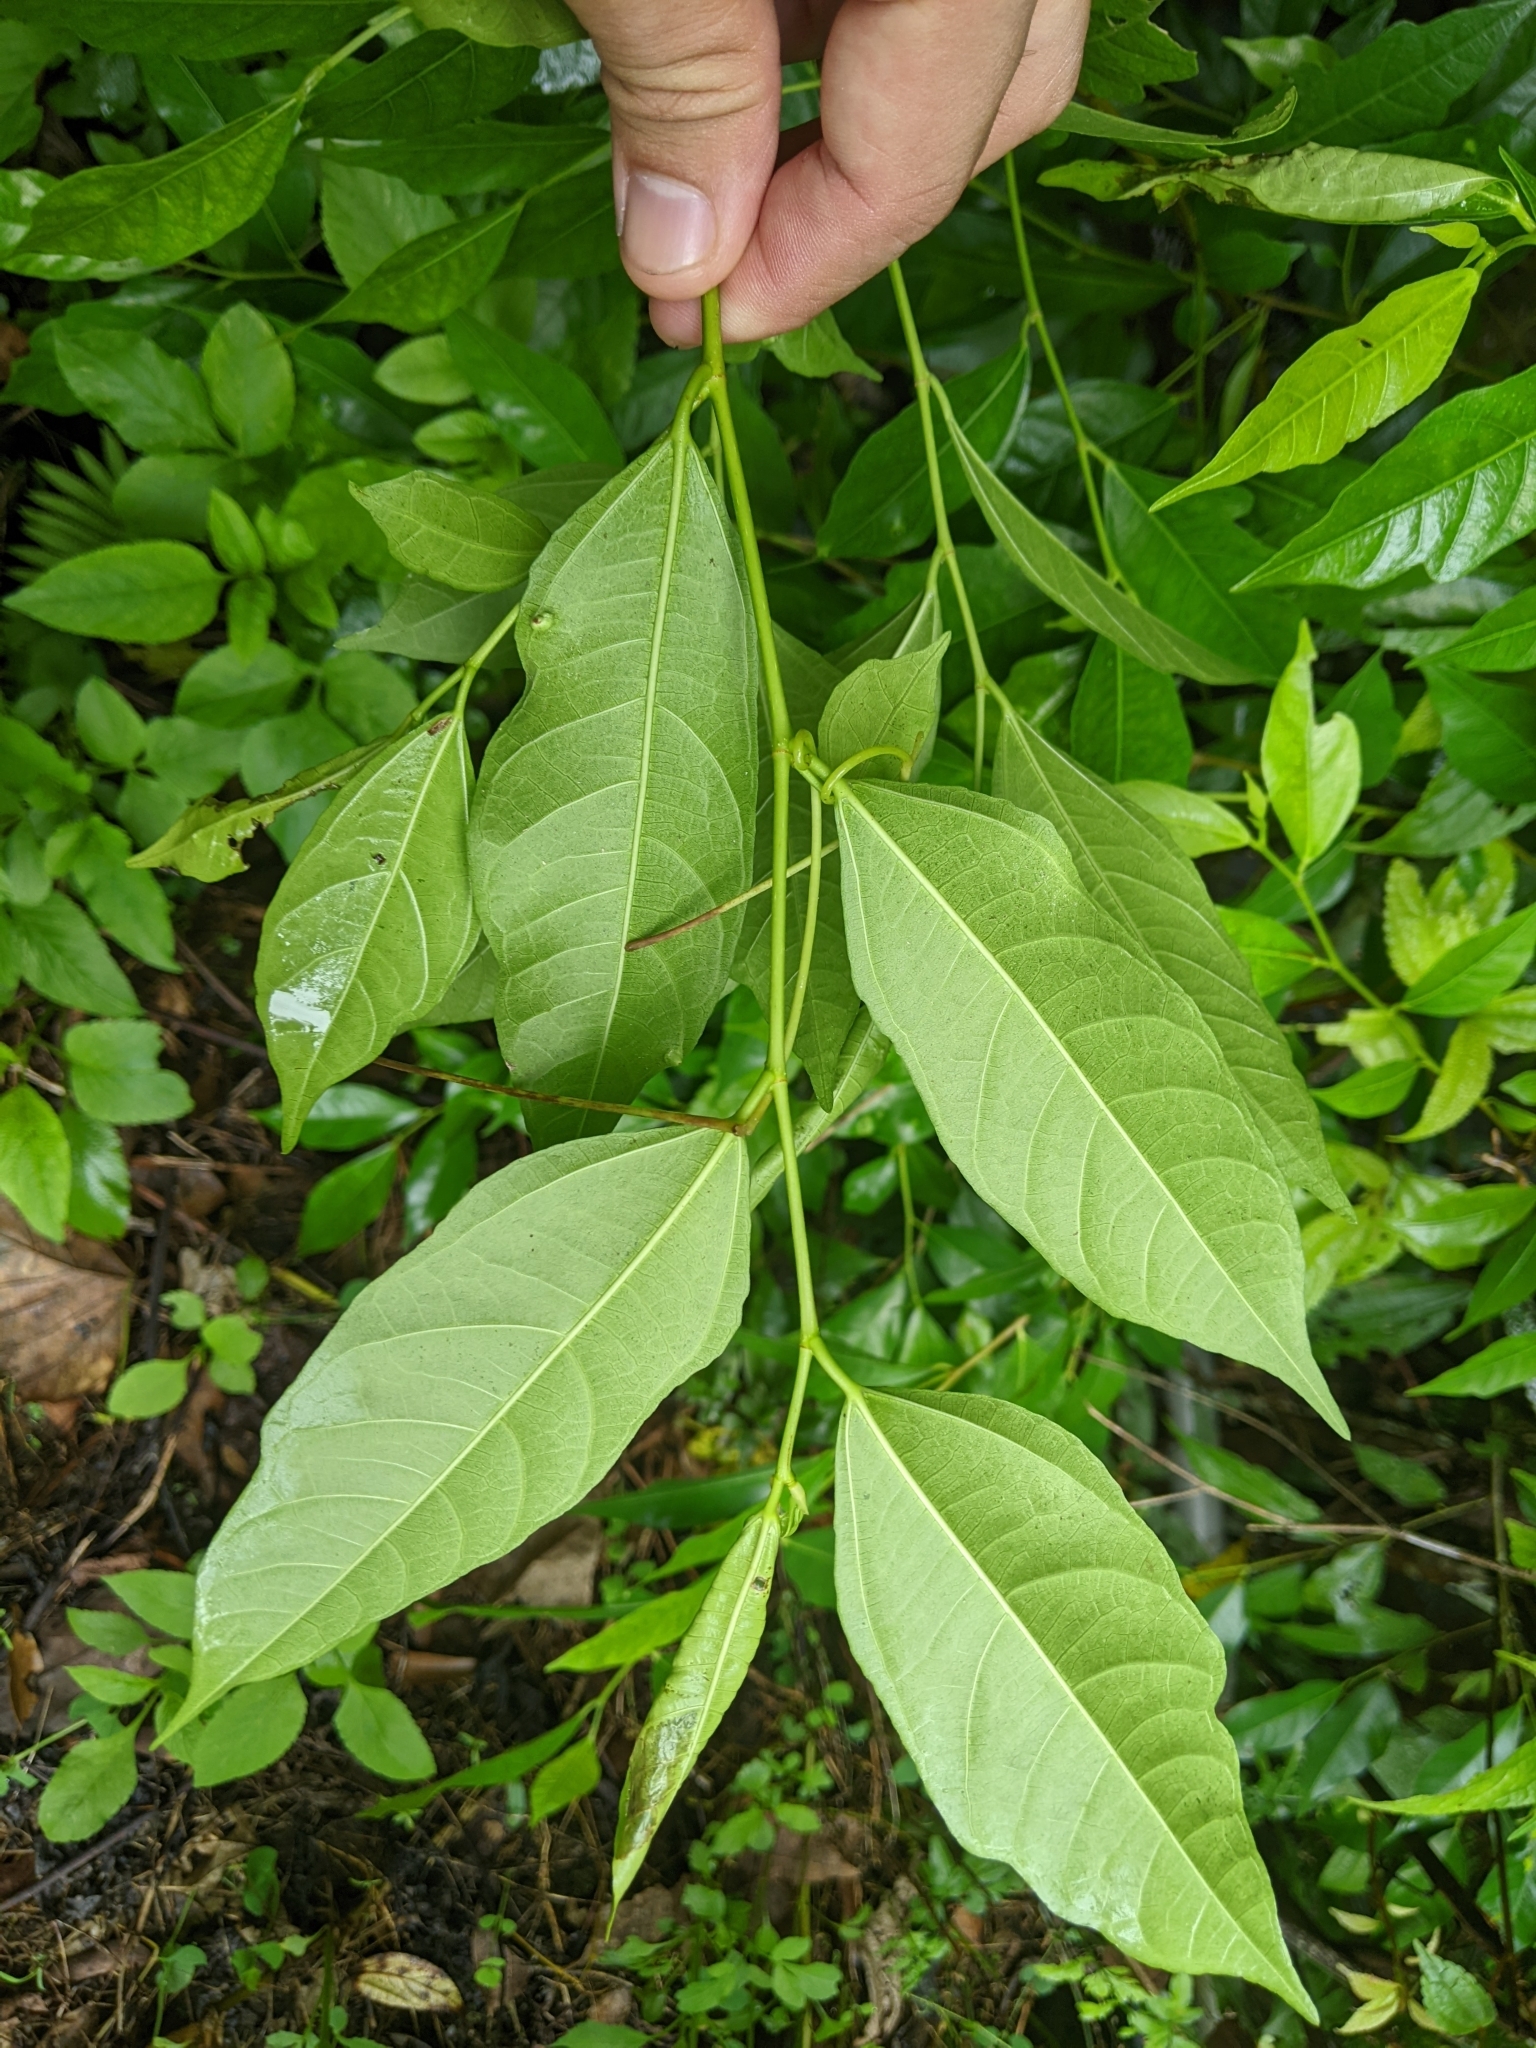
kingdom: Plantae
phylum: Tracheophyta
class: Magnoliopsida
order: Rosales
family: Moraceae
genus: Ficus
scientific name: Ficus ampelos
